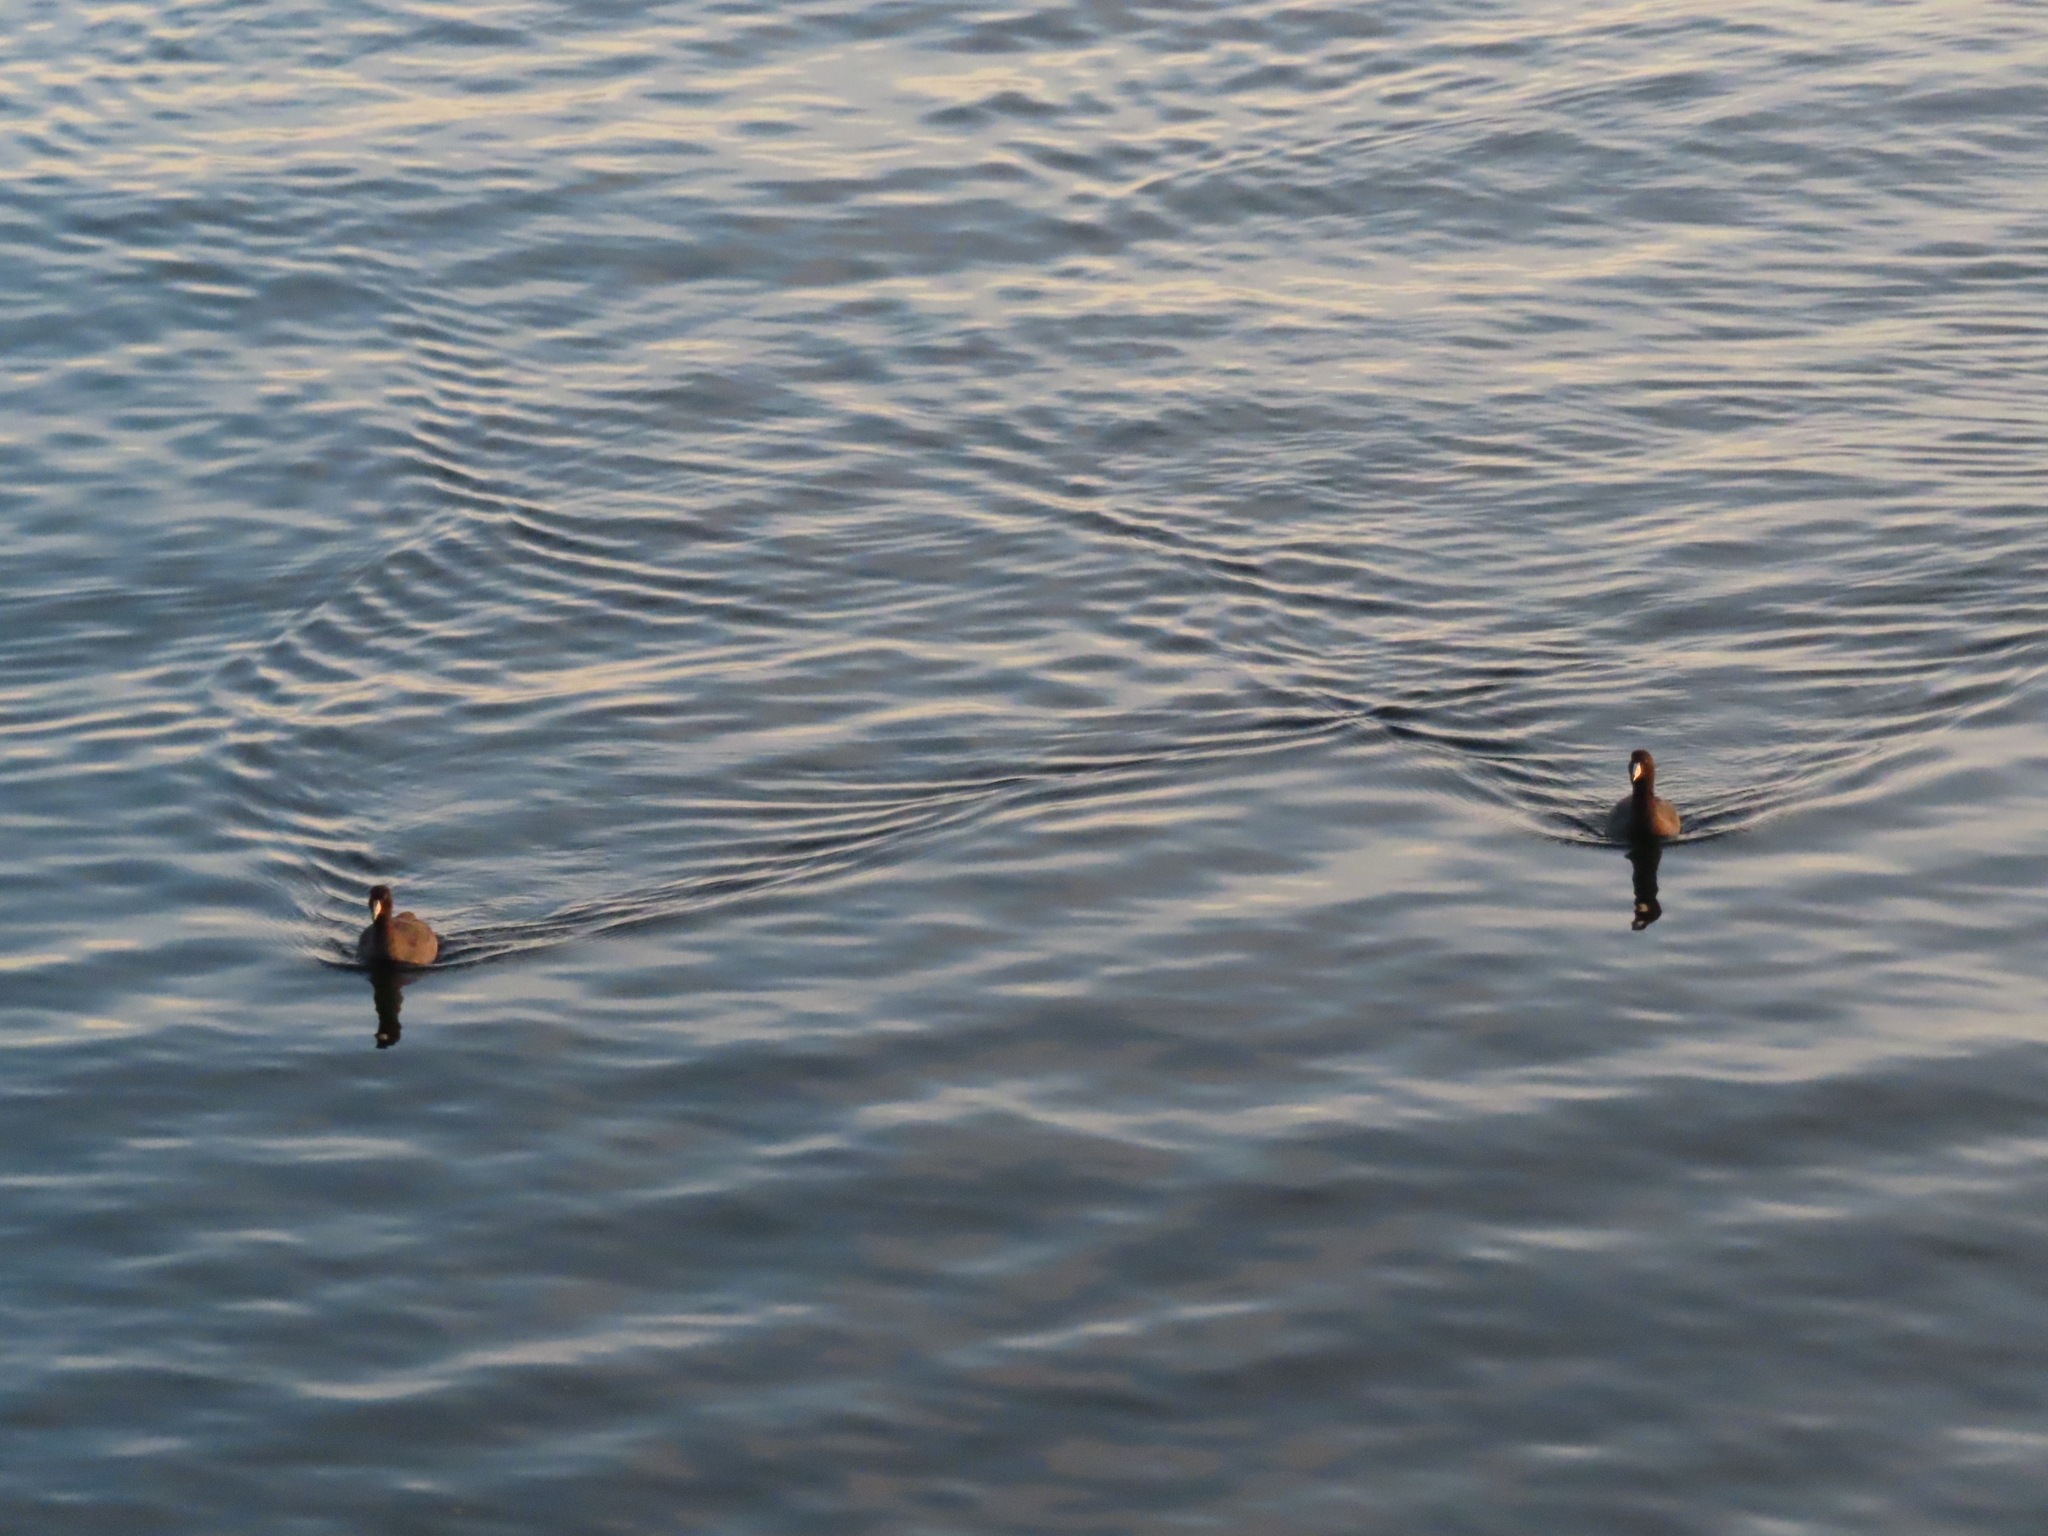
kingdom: Animalia
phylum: Chordata
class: Aves
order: Gruiformes
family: Rallidae
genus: Fulica
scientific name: Fulica americana
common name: American coot
